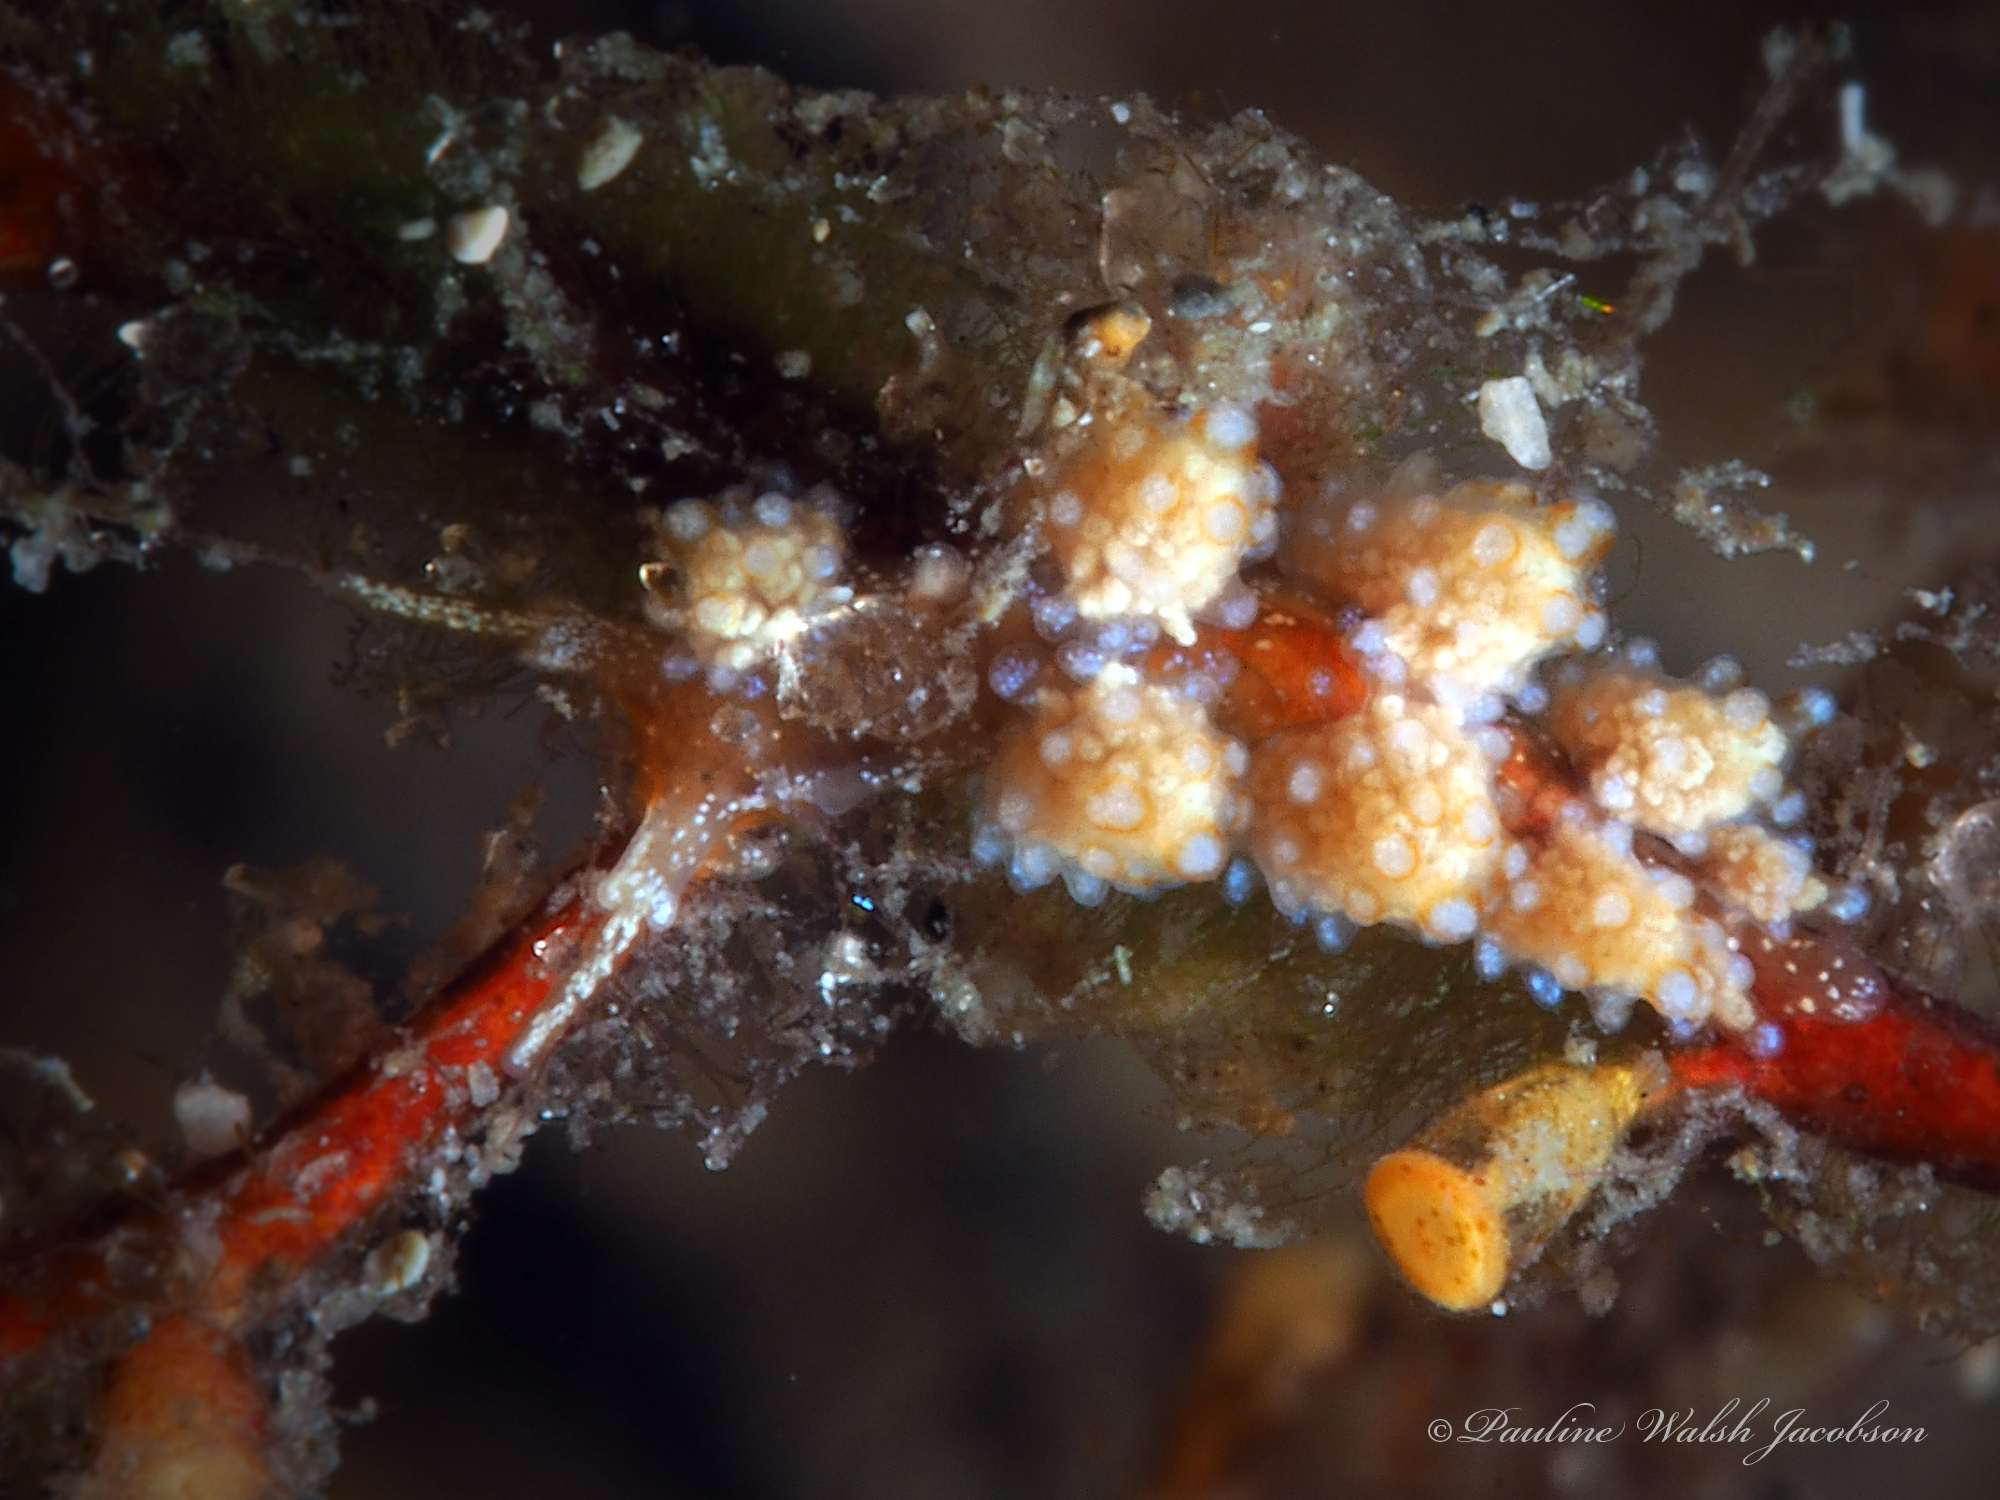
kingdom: Animalia
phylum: Mollusca
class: Gastropoda
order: Nudibranchia
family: Dotidae
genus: Doto
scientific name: Doto torrelavega
